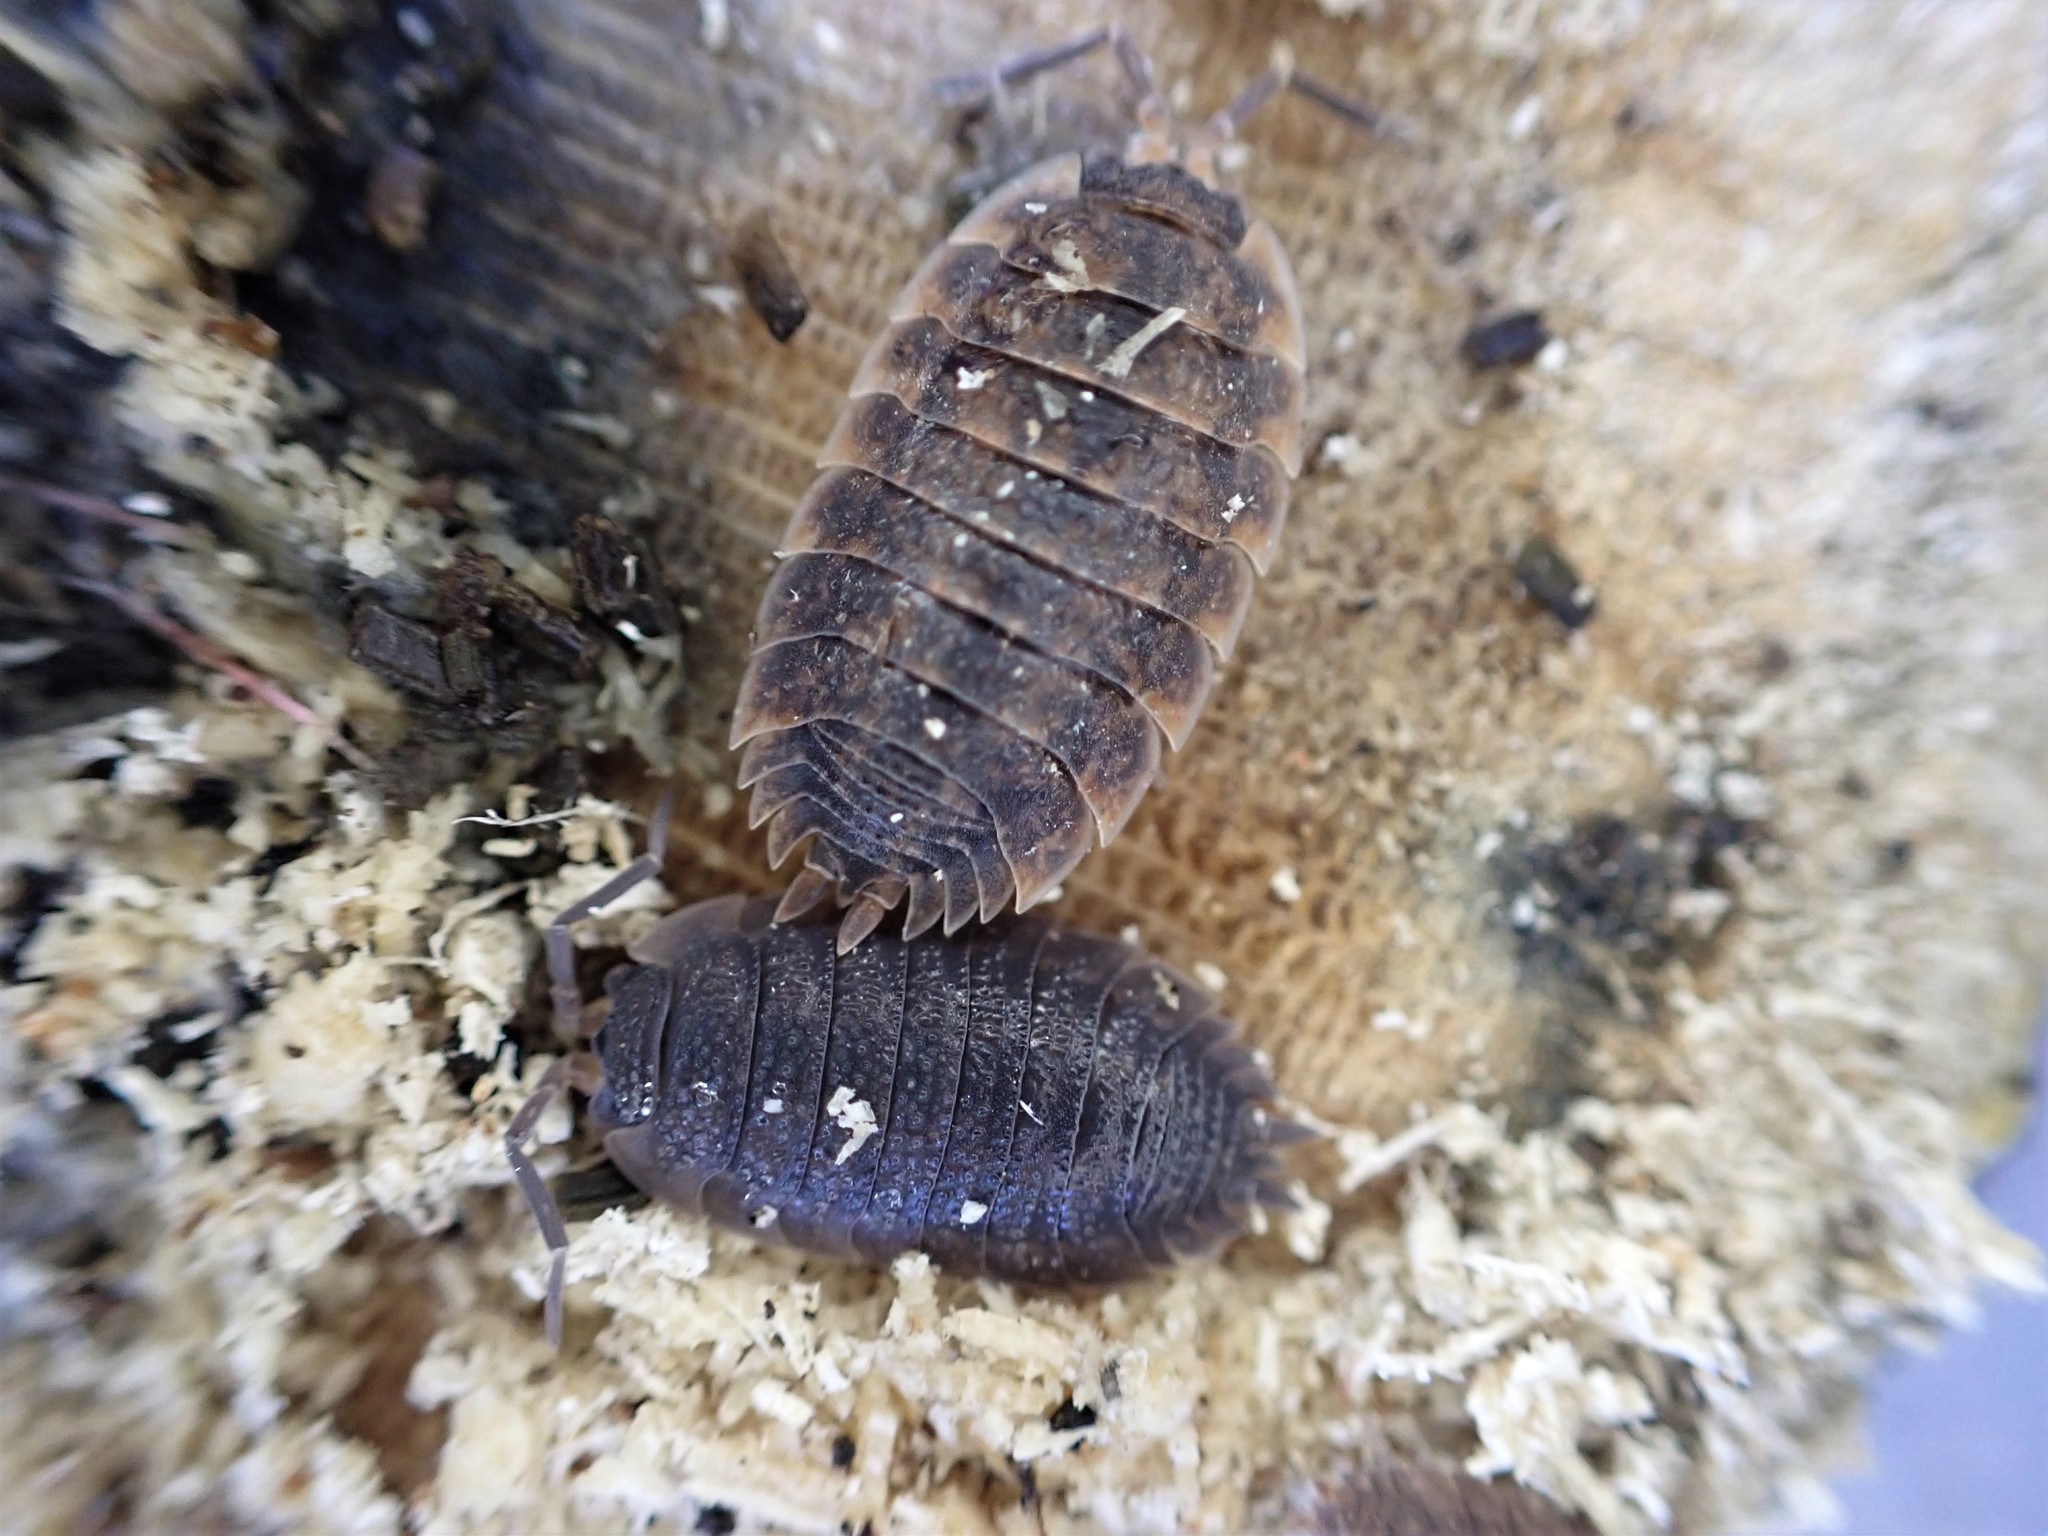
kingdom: Animalia
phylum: Arthropoda
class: Malacostraca
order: Isopoda
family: Porcellionidae
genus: Porcellio
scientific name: Porcellio scaber
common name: Common rough woodlouse
